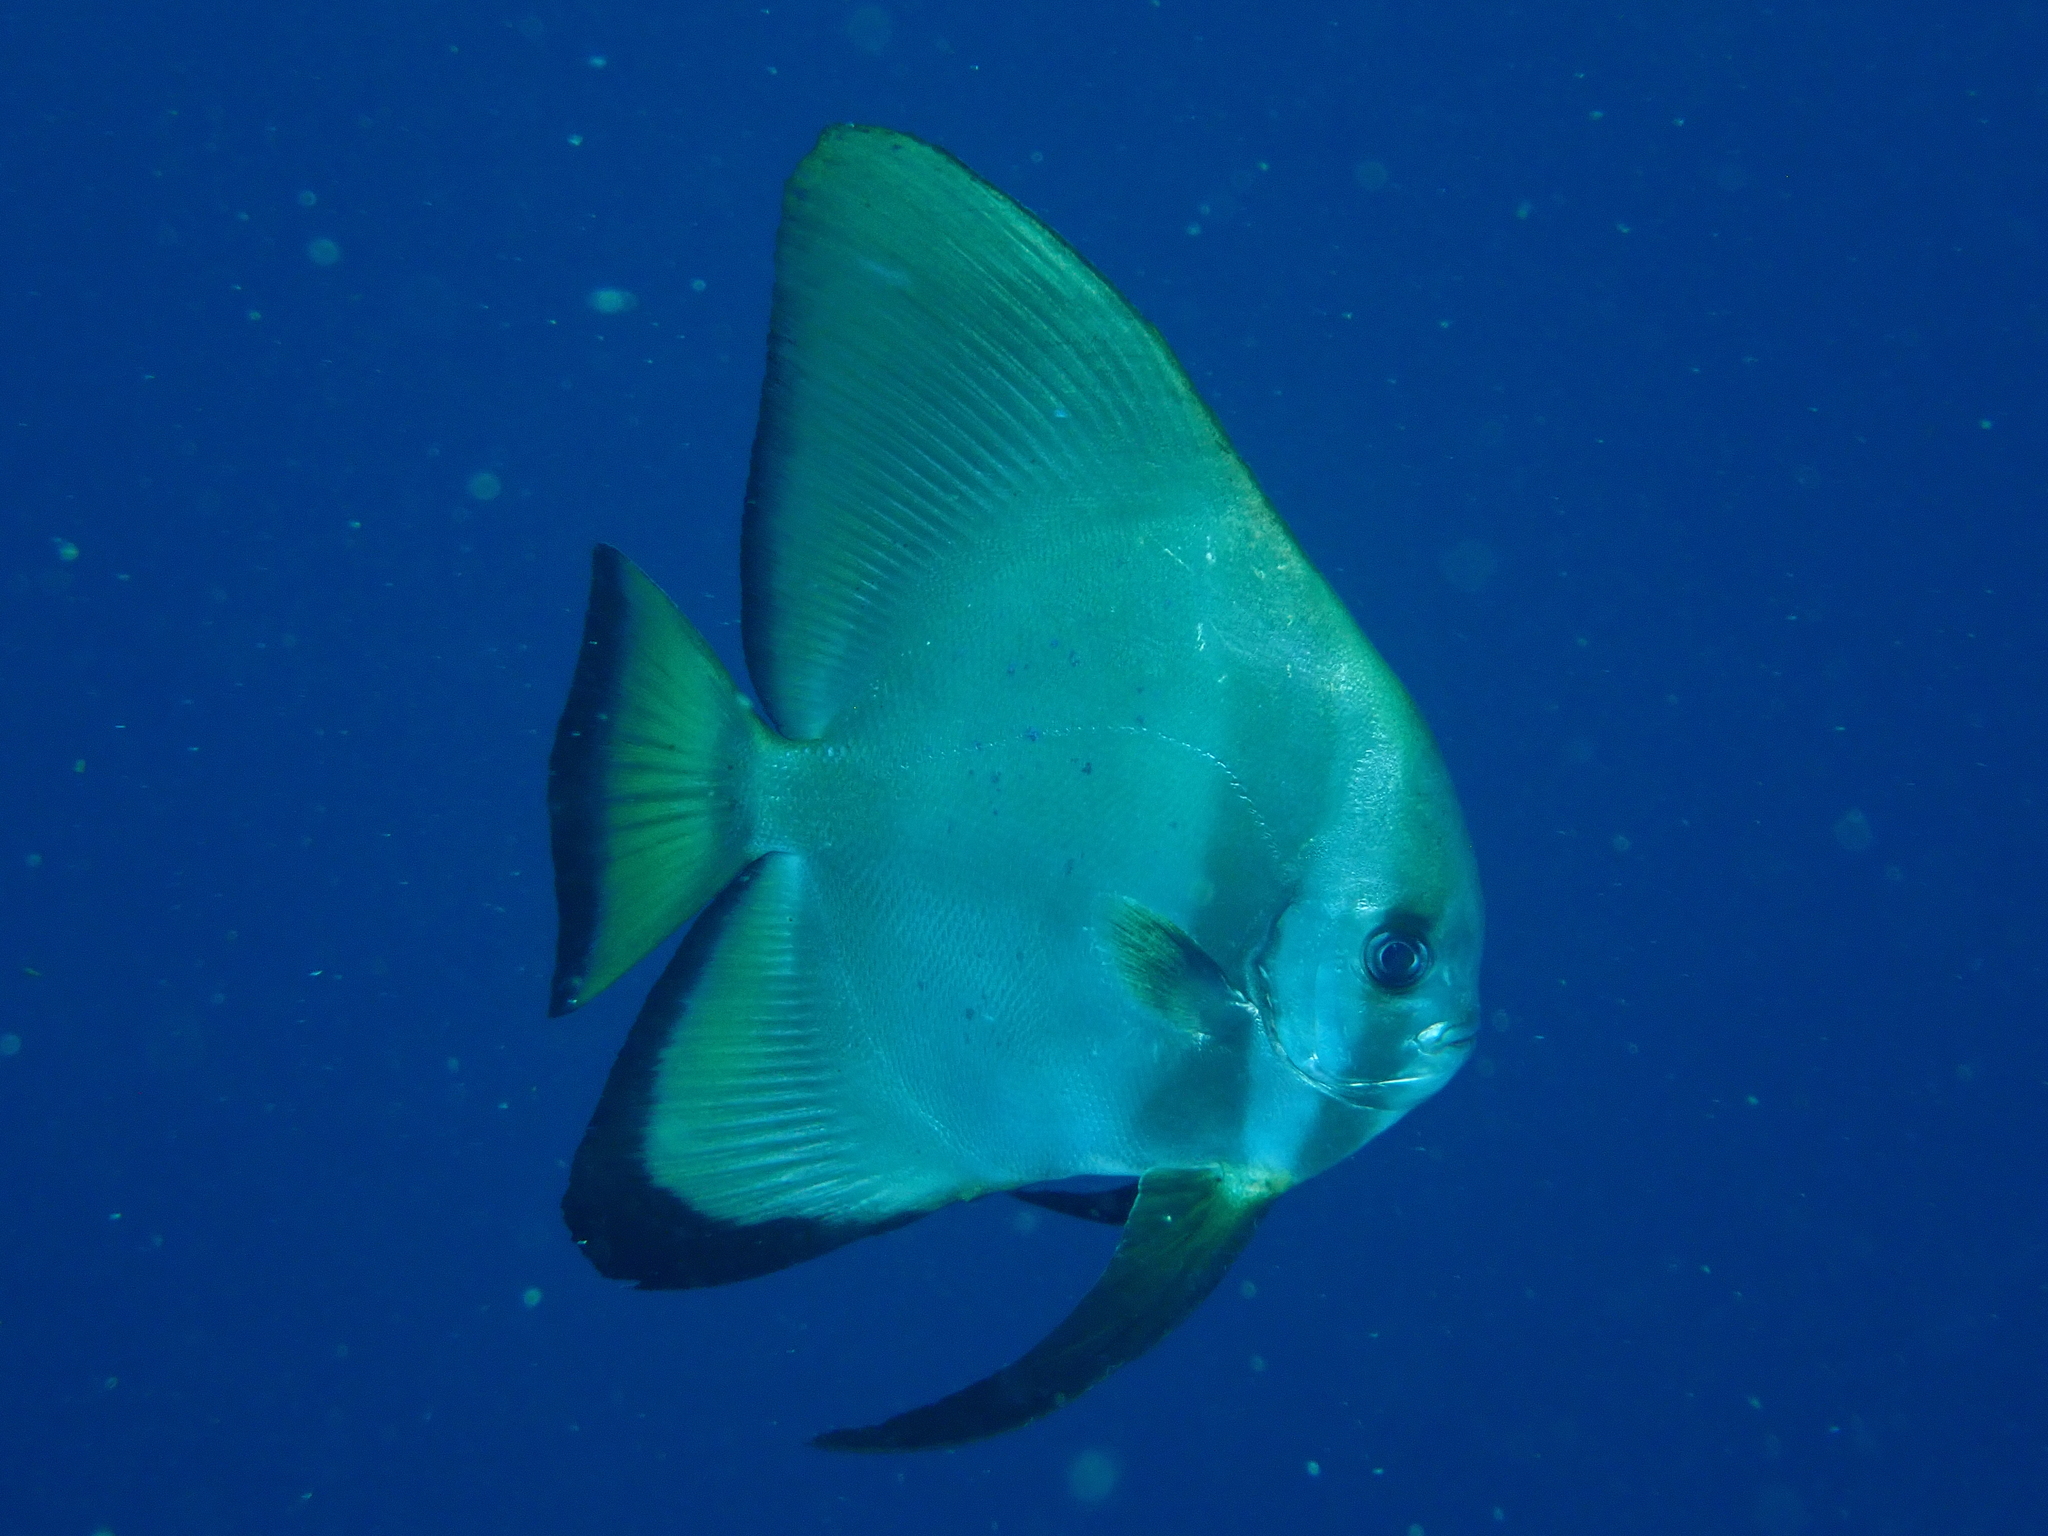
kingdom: Animalia
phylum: Chordata
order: Perciformes
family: Ephippidae
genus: Platax
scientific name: Platax boersii
